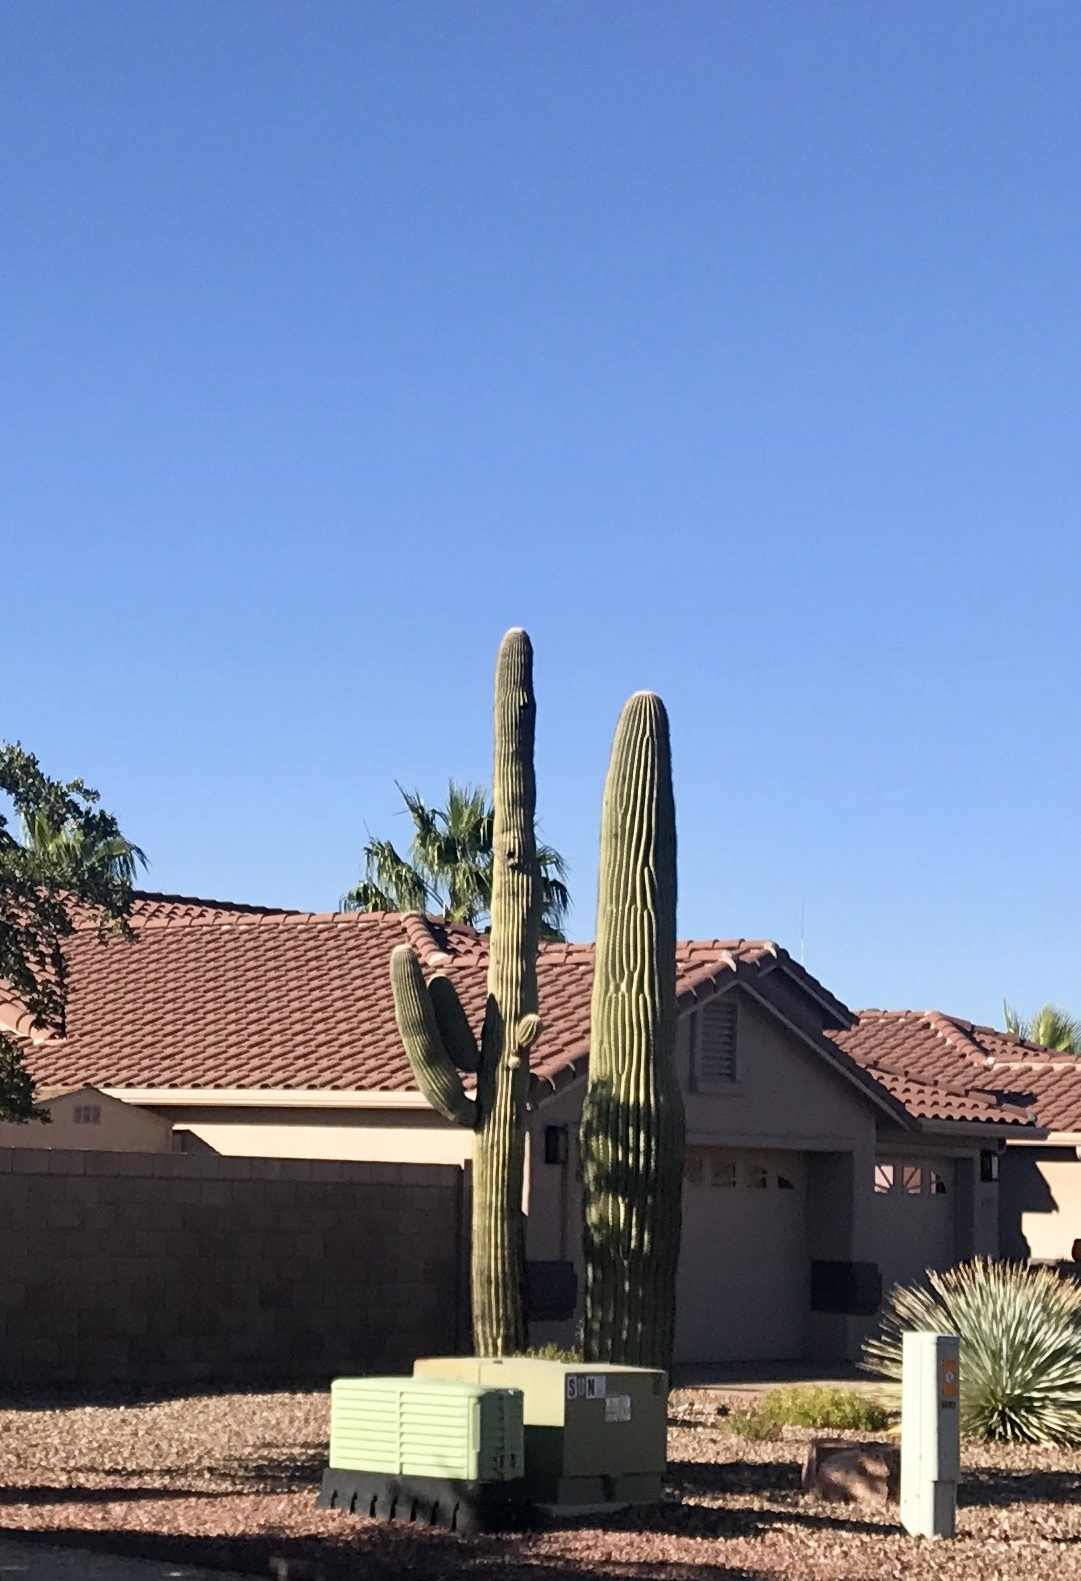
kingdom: Plantae
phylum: Tracheophyta
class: Magnoliopsida
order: Caryophyllales
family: Cactaceae
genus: Carnegiea
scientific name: Carnegiea gigantea
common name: Saguaro
